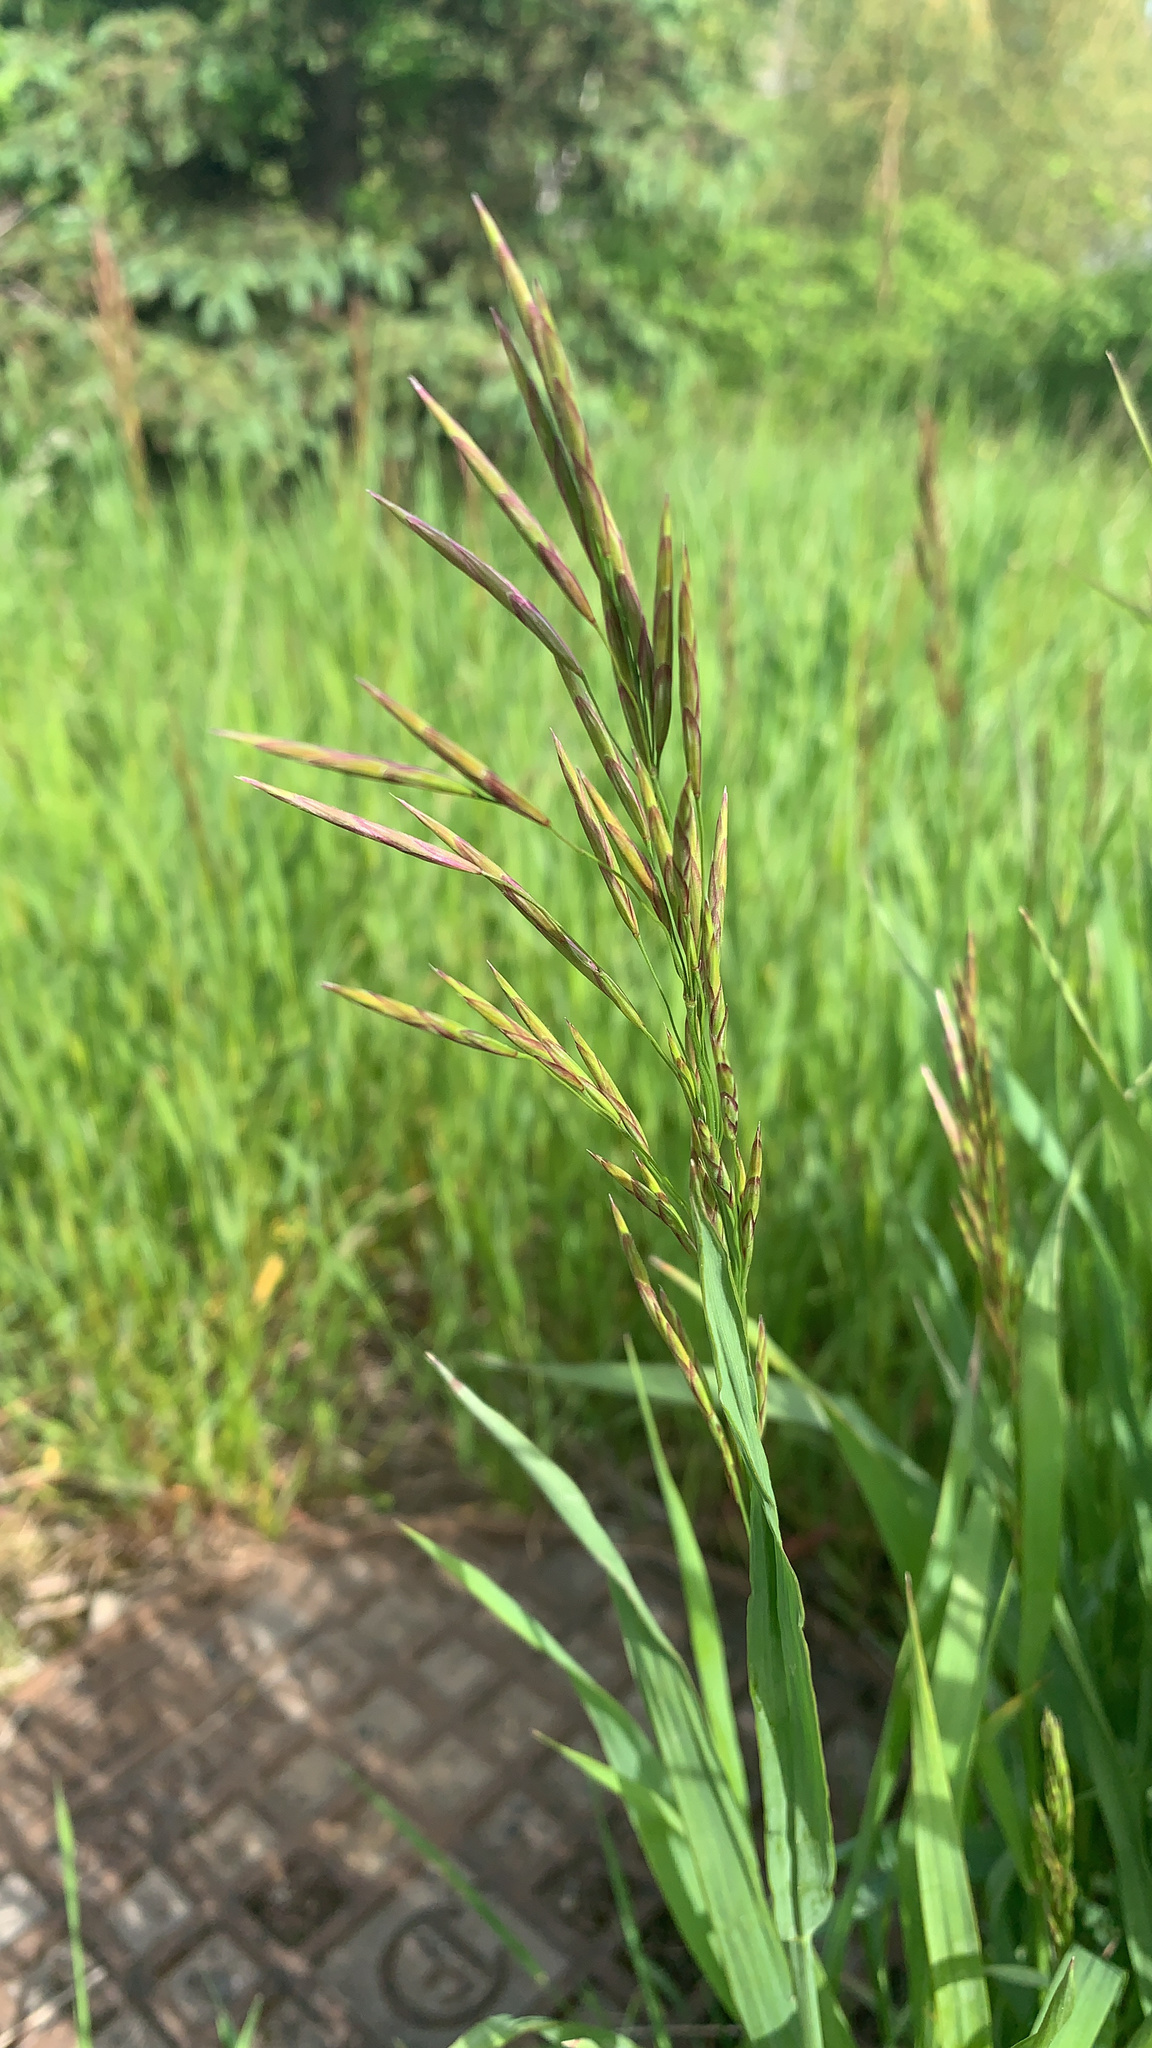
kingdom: Plantae
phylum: Tracheophyta
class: Liliopsida
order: Poales
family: Poaceae
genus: Bromus
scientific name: Bromus inermis
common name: Smooth brome
